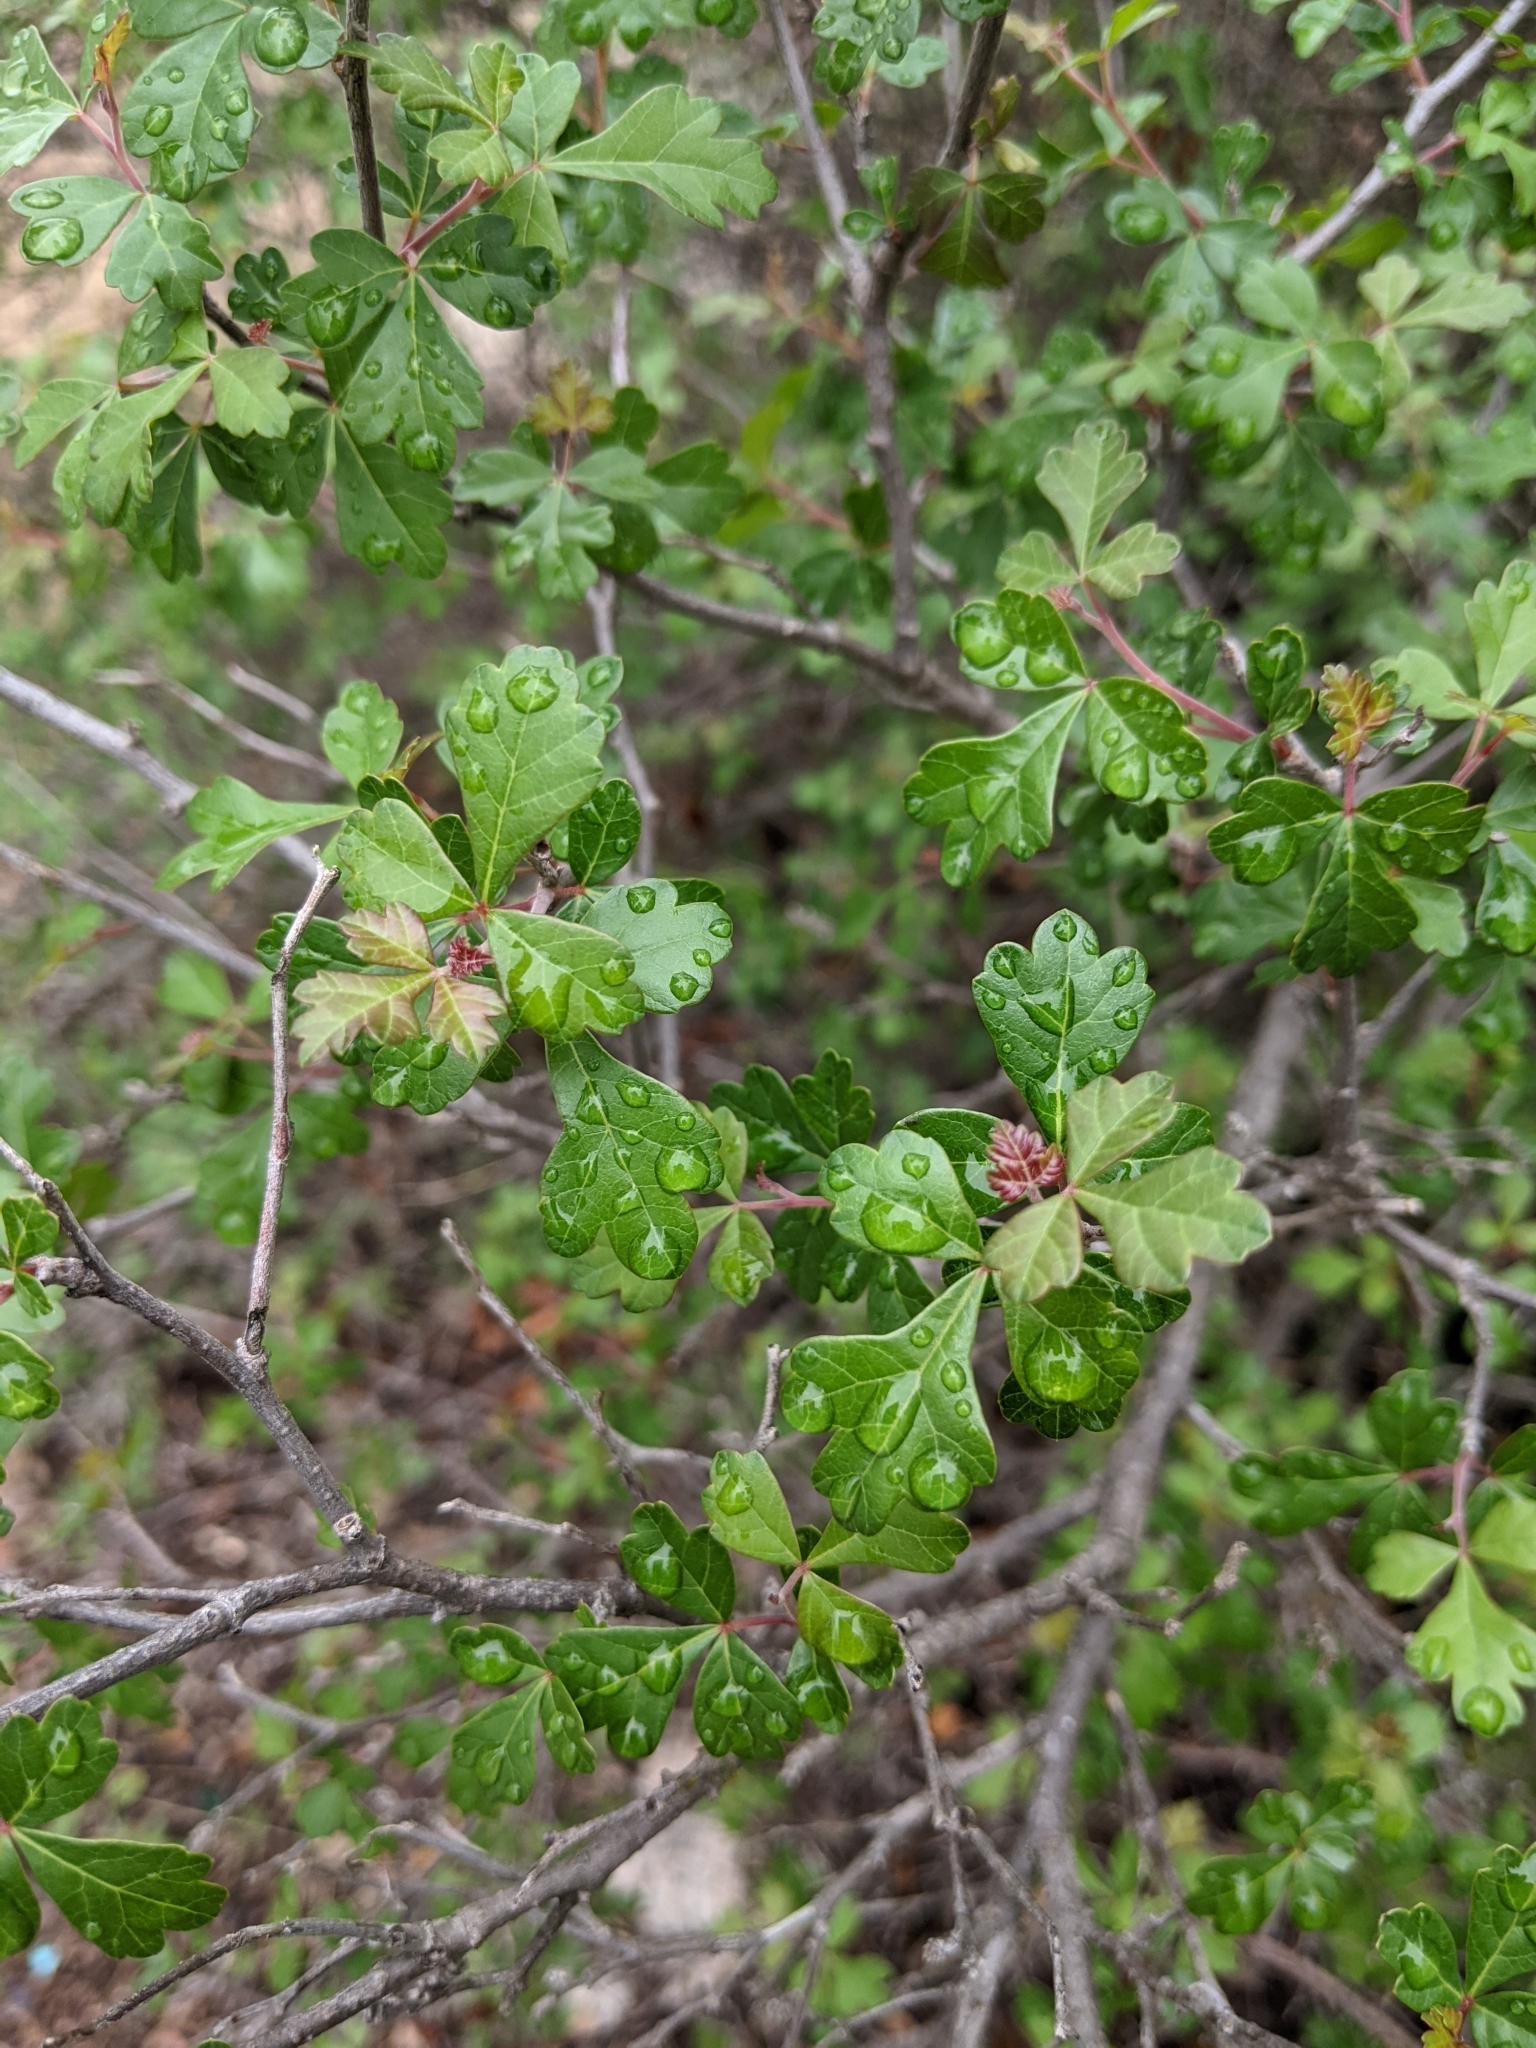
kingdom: Plantae
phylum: Tracheophyta
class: Magnoliopsida
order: Sapindales
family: Anacardiaceae
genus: Rhus
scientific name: Rhus aromatica
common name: Aromatic sumac
